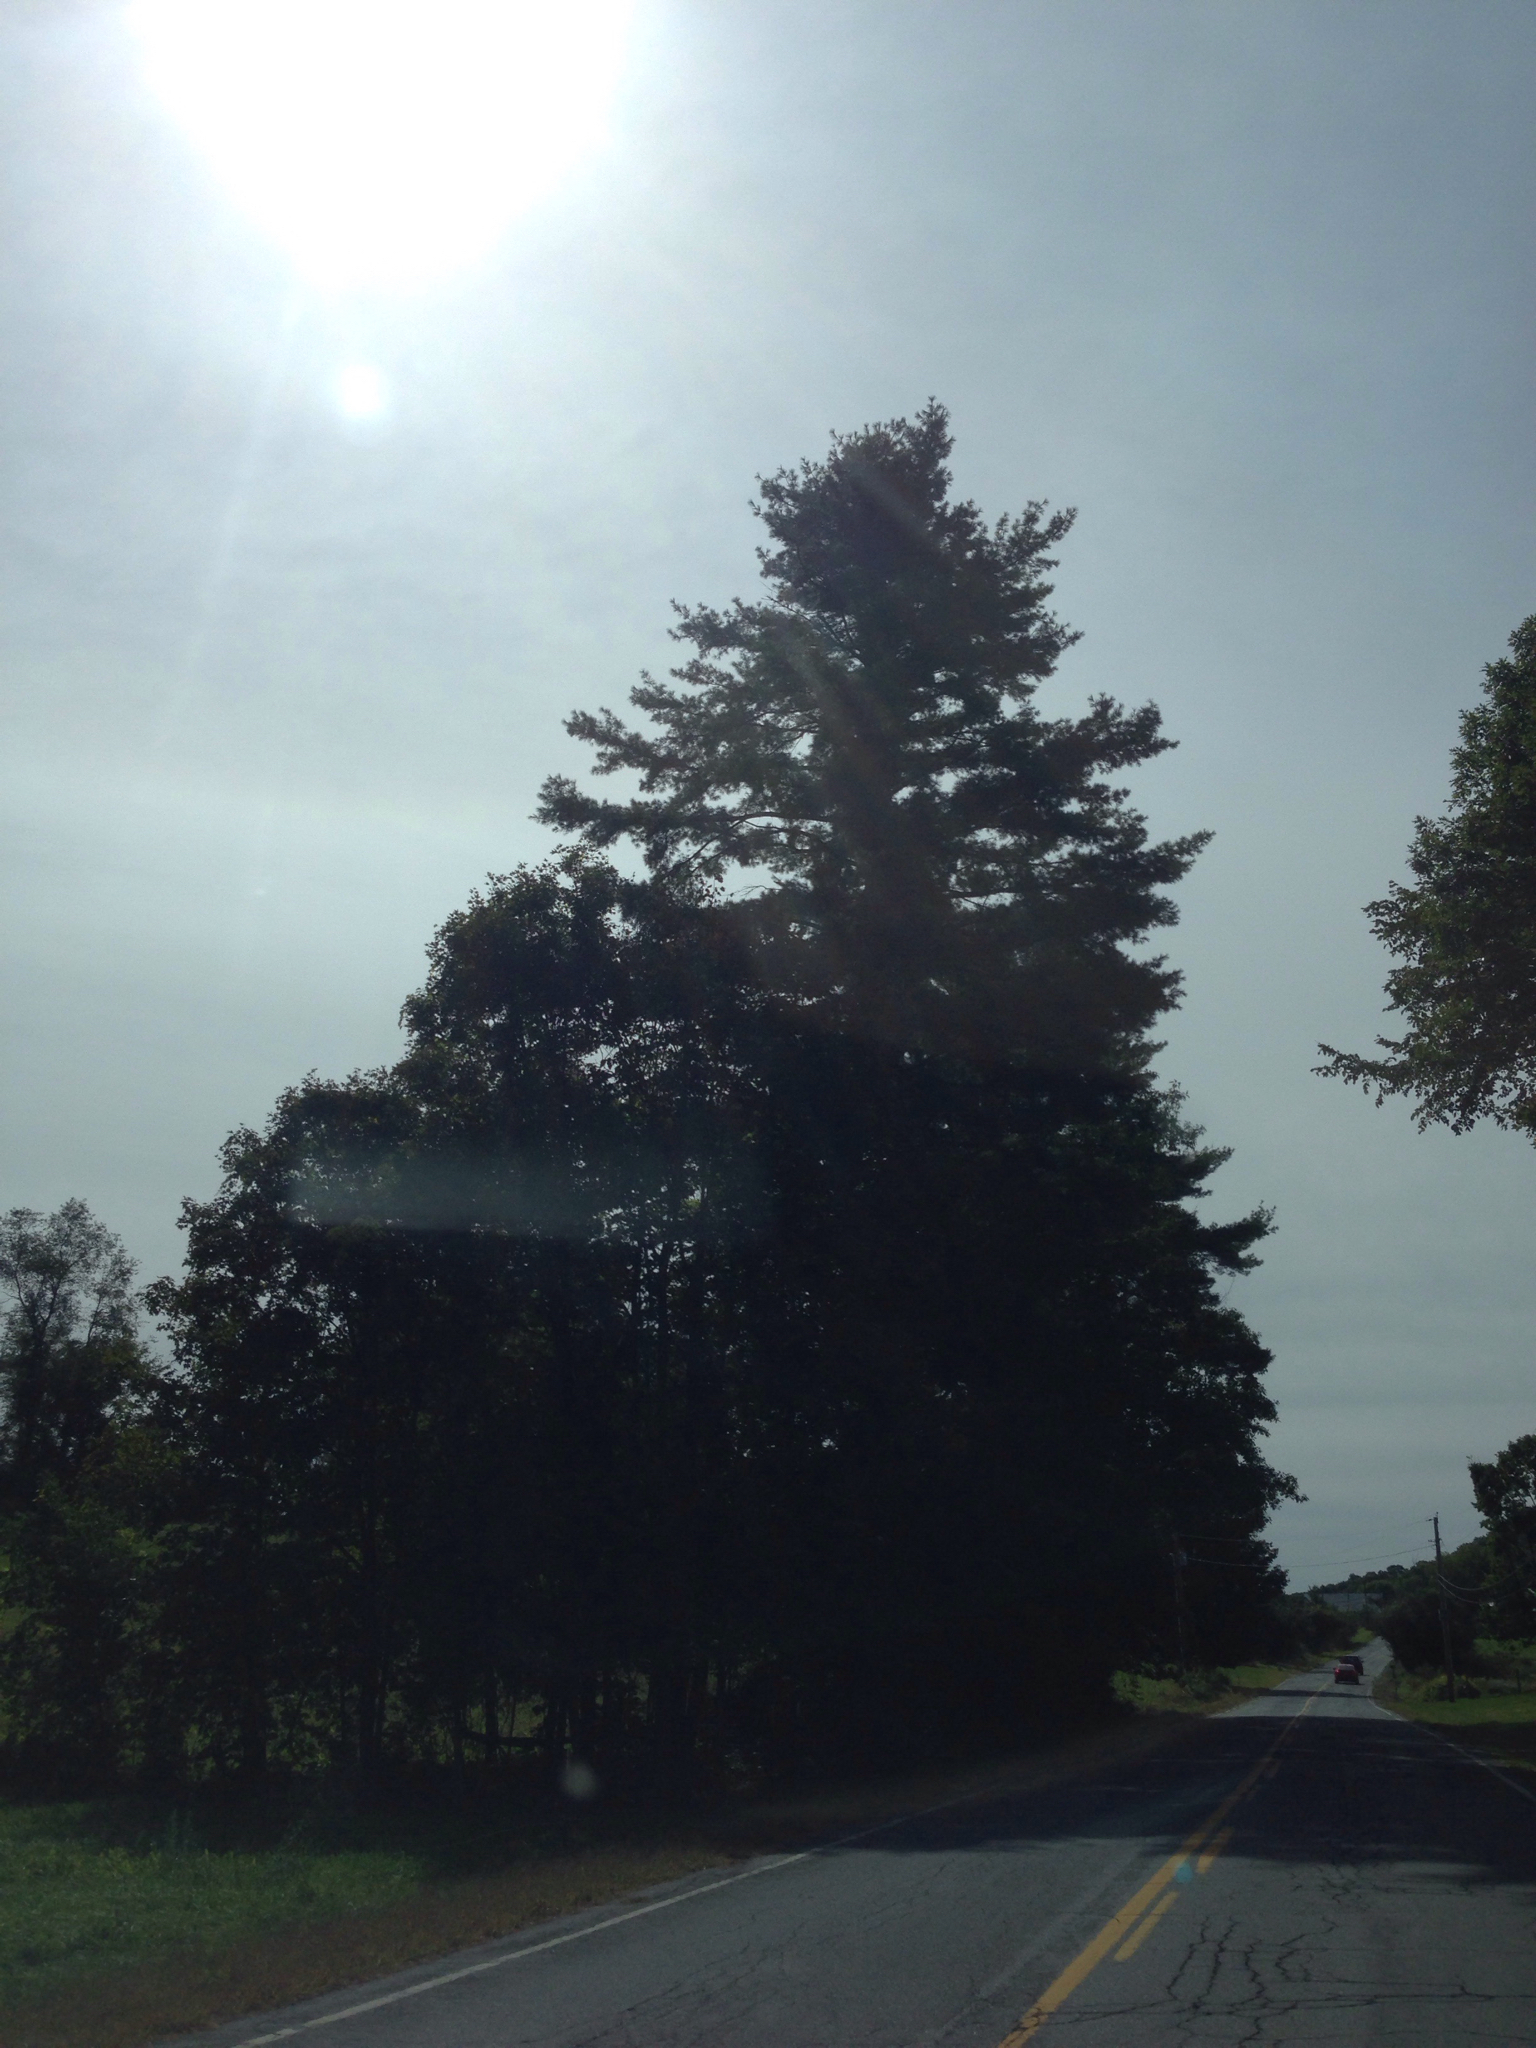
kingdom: Plantae
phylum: Tracheophyta
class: Pinopsida
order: Pinales
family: Pinaceae
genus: Pinus
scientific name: Pinus strobus
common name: Weymouth pine
